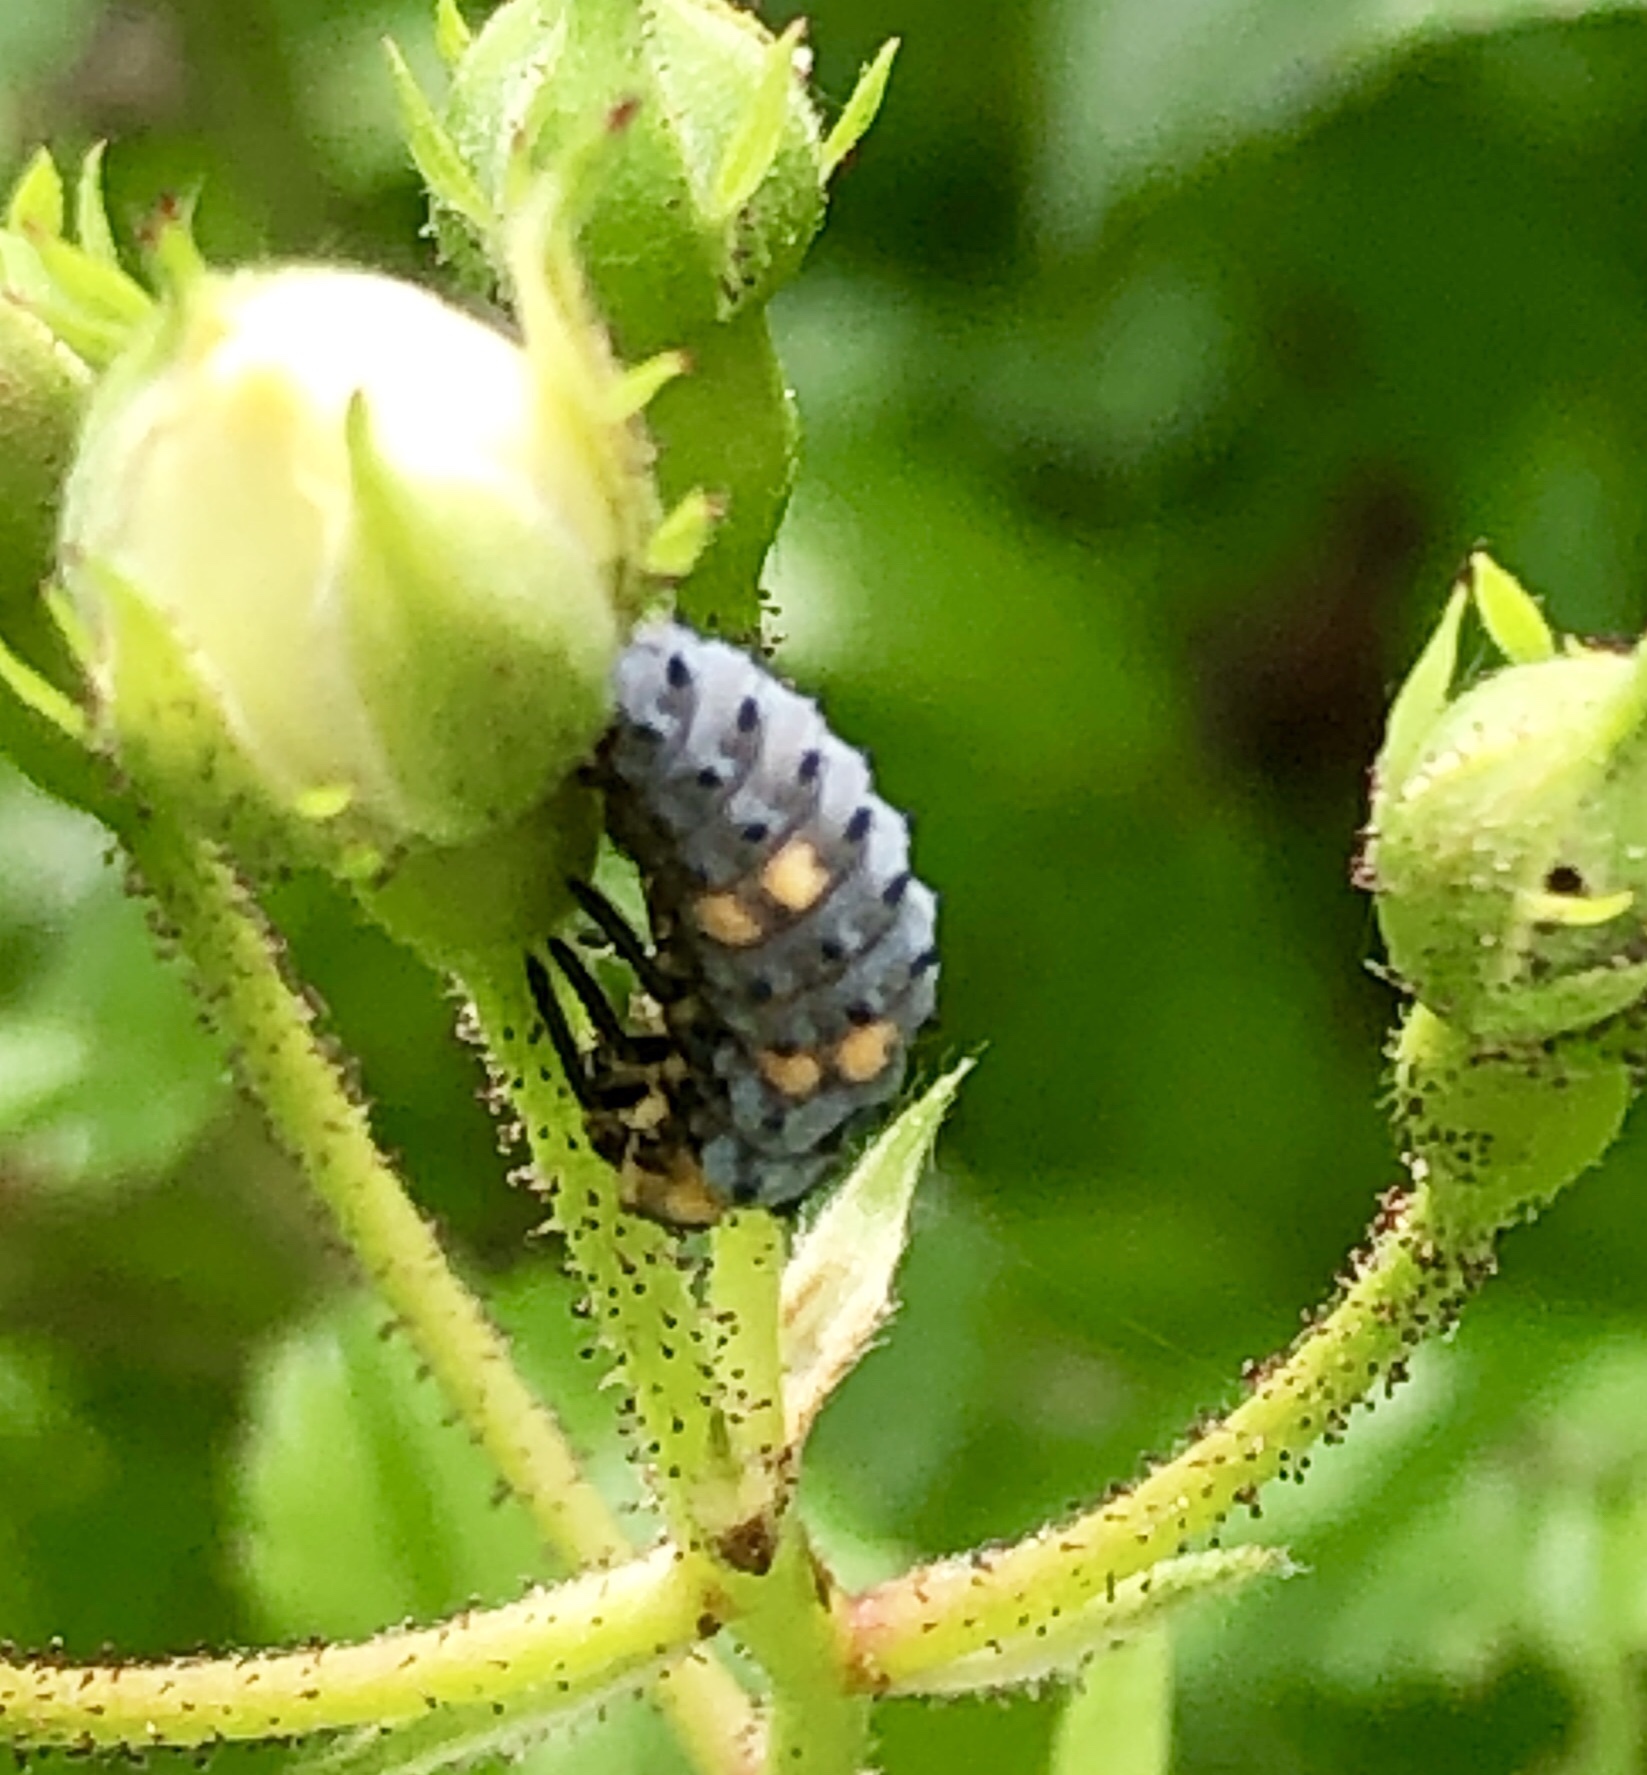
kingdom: Animalia
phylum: Arthropoda
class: Insecta
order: Coleoptera
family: Coccinellidae
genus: Coccinella
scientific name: Coccinella septempunctata
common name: Sevenspotted lady beetle
